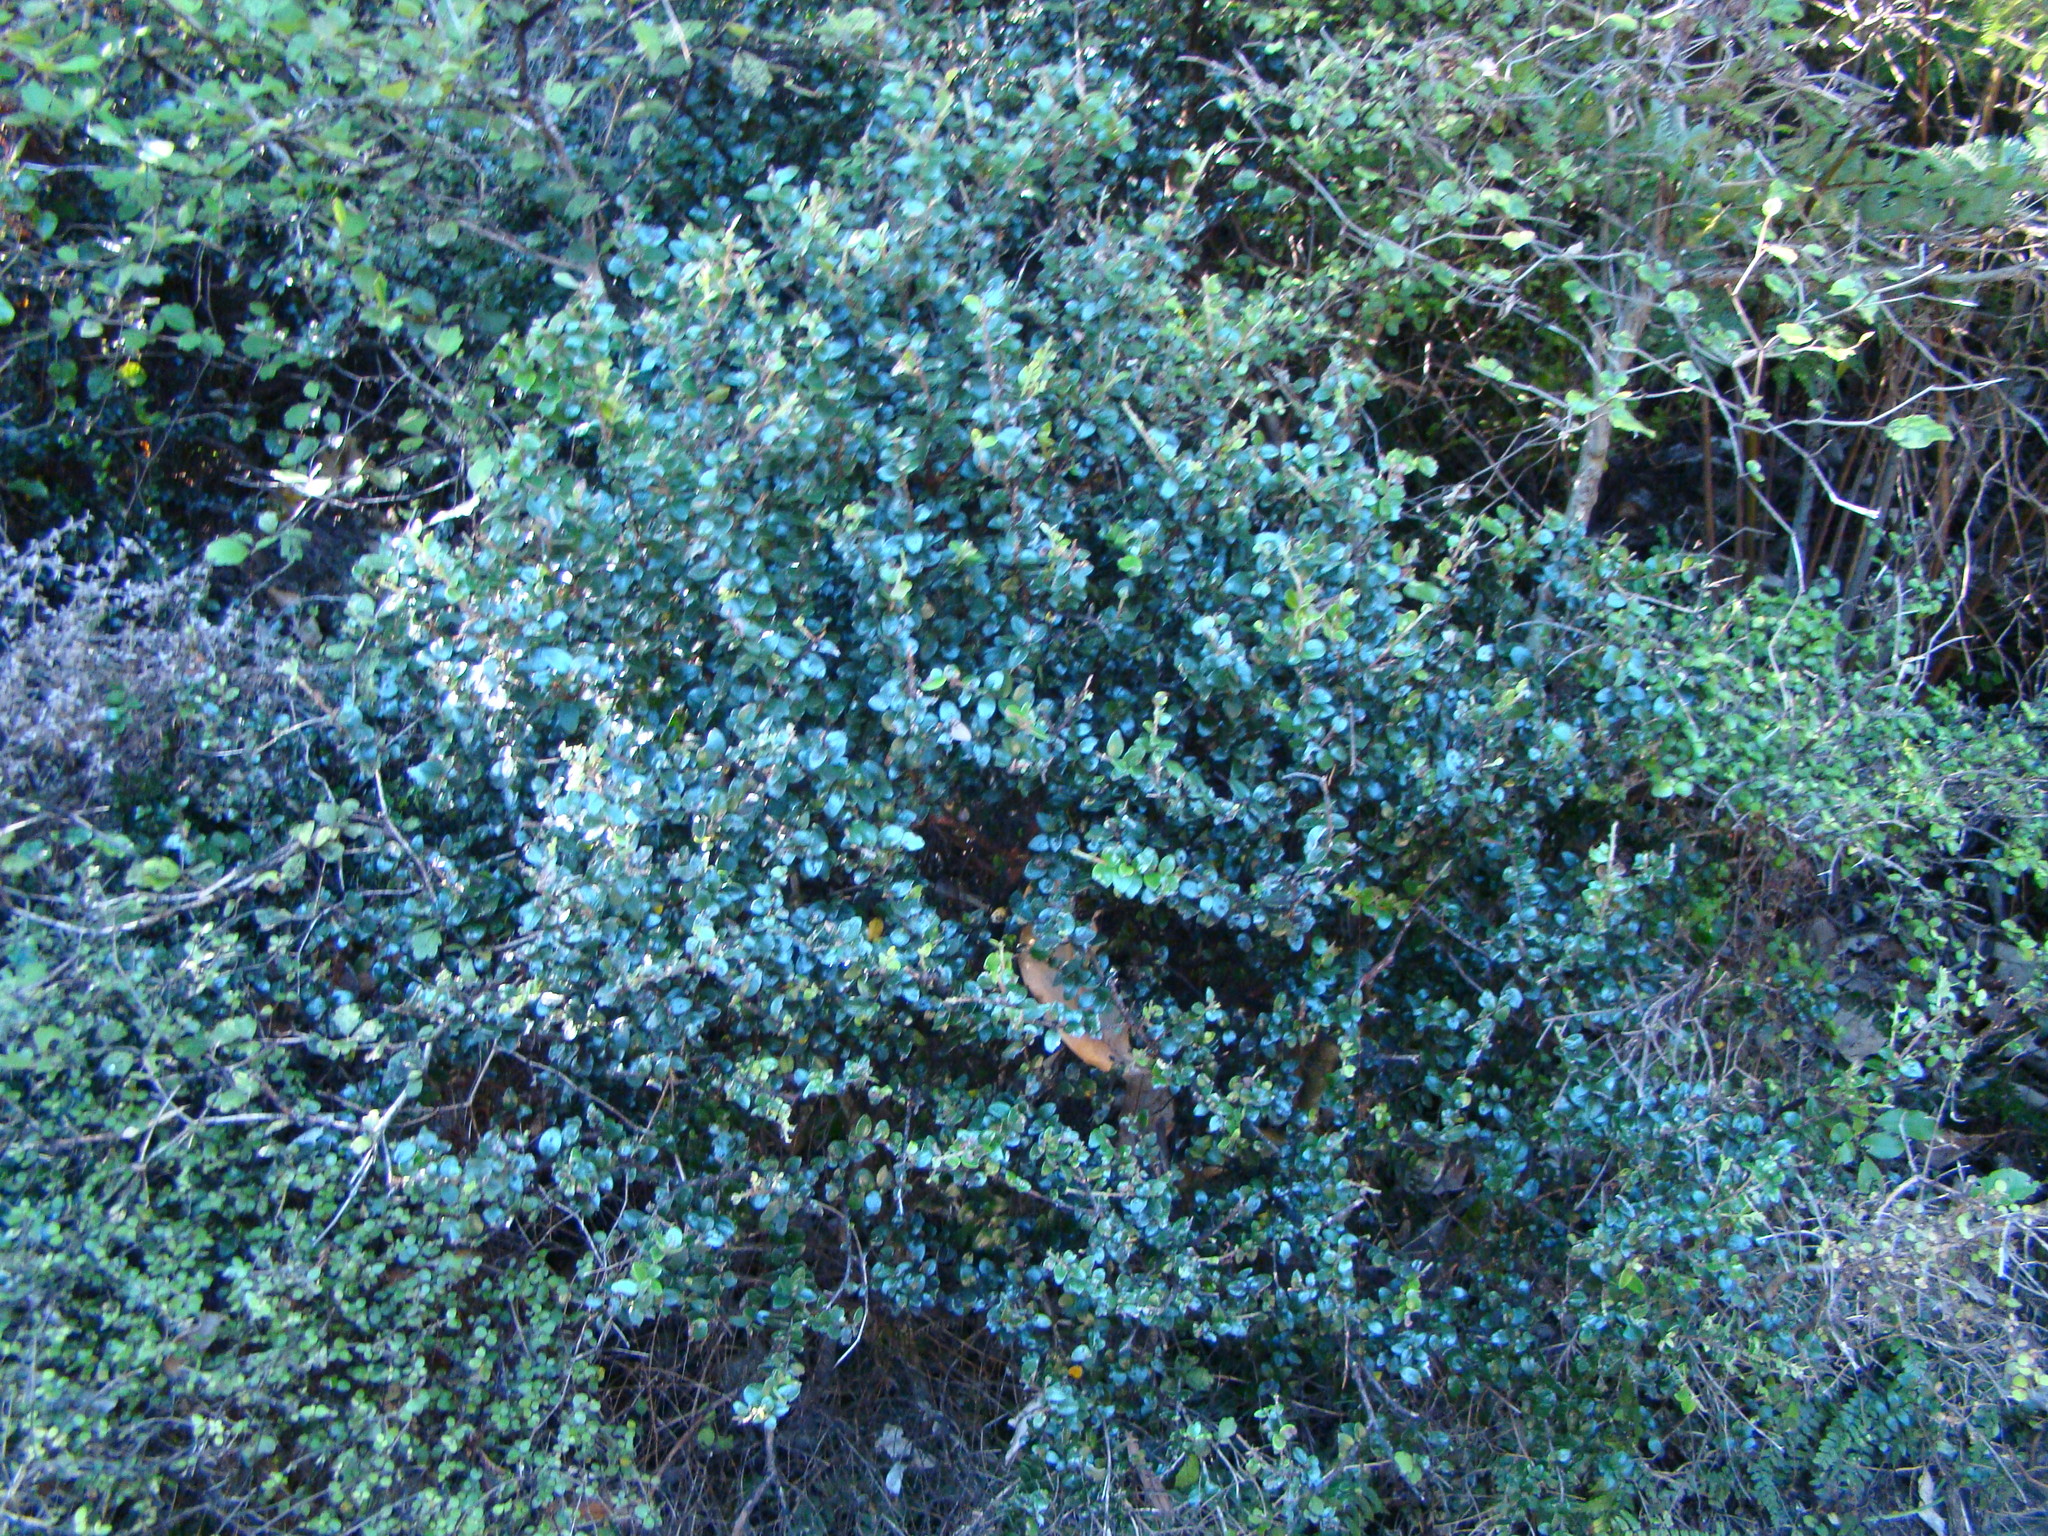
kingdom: Plantae
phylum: Tracheophyta
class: Magnoliopsida
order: Myrtales
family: Myrtaceae
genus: Metrosideros
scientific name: Metrosideros perforata
